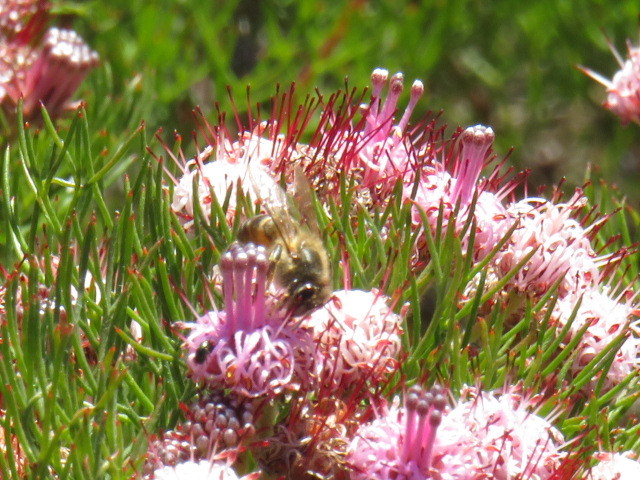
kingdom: Animalia
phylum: Arthropoda
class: Insecta
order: Hymenoptera
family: Apidae
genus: Apis
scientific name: Apis mellifera
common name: Honey bee
